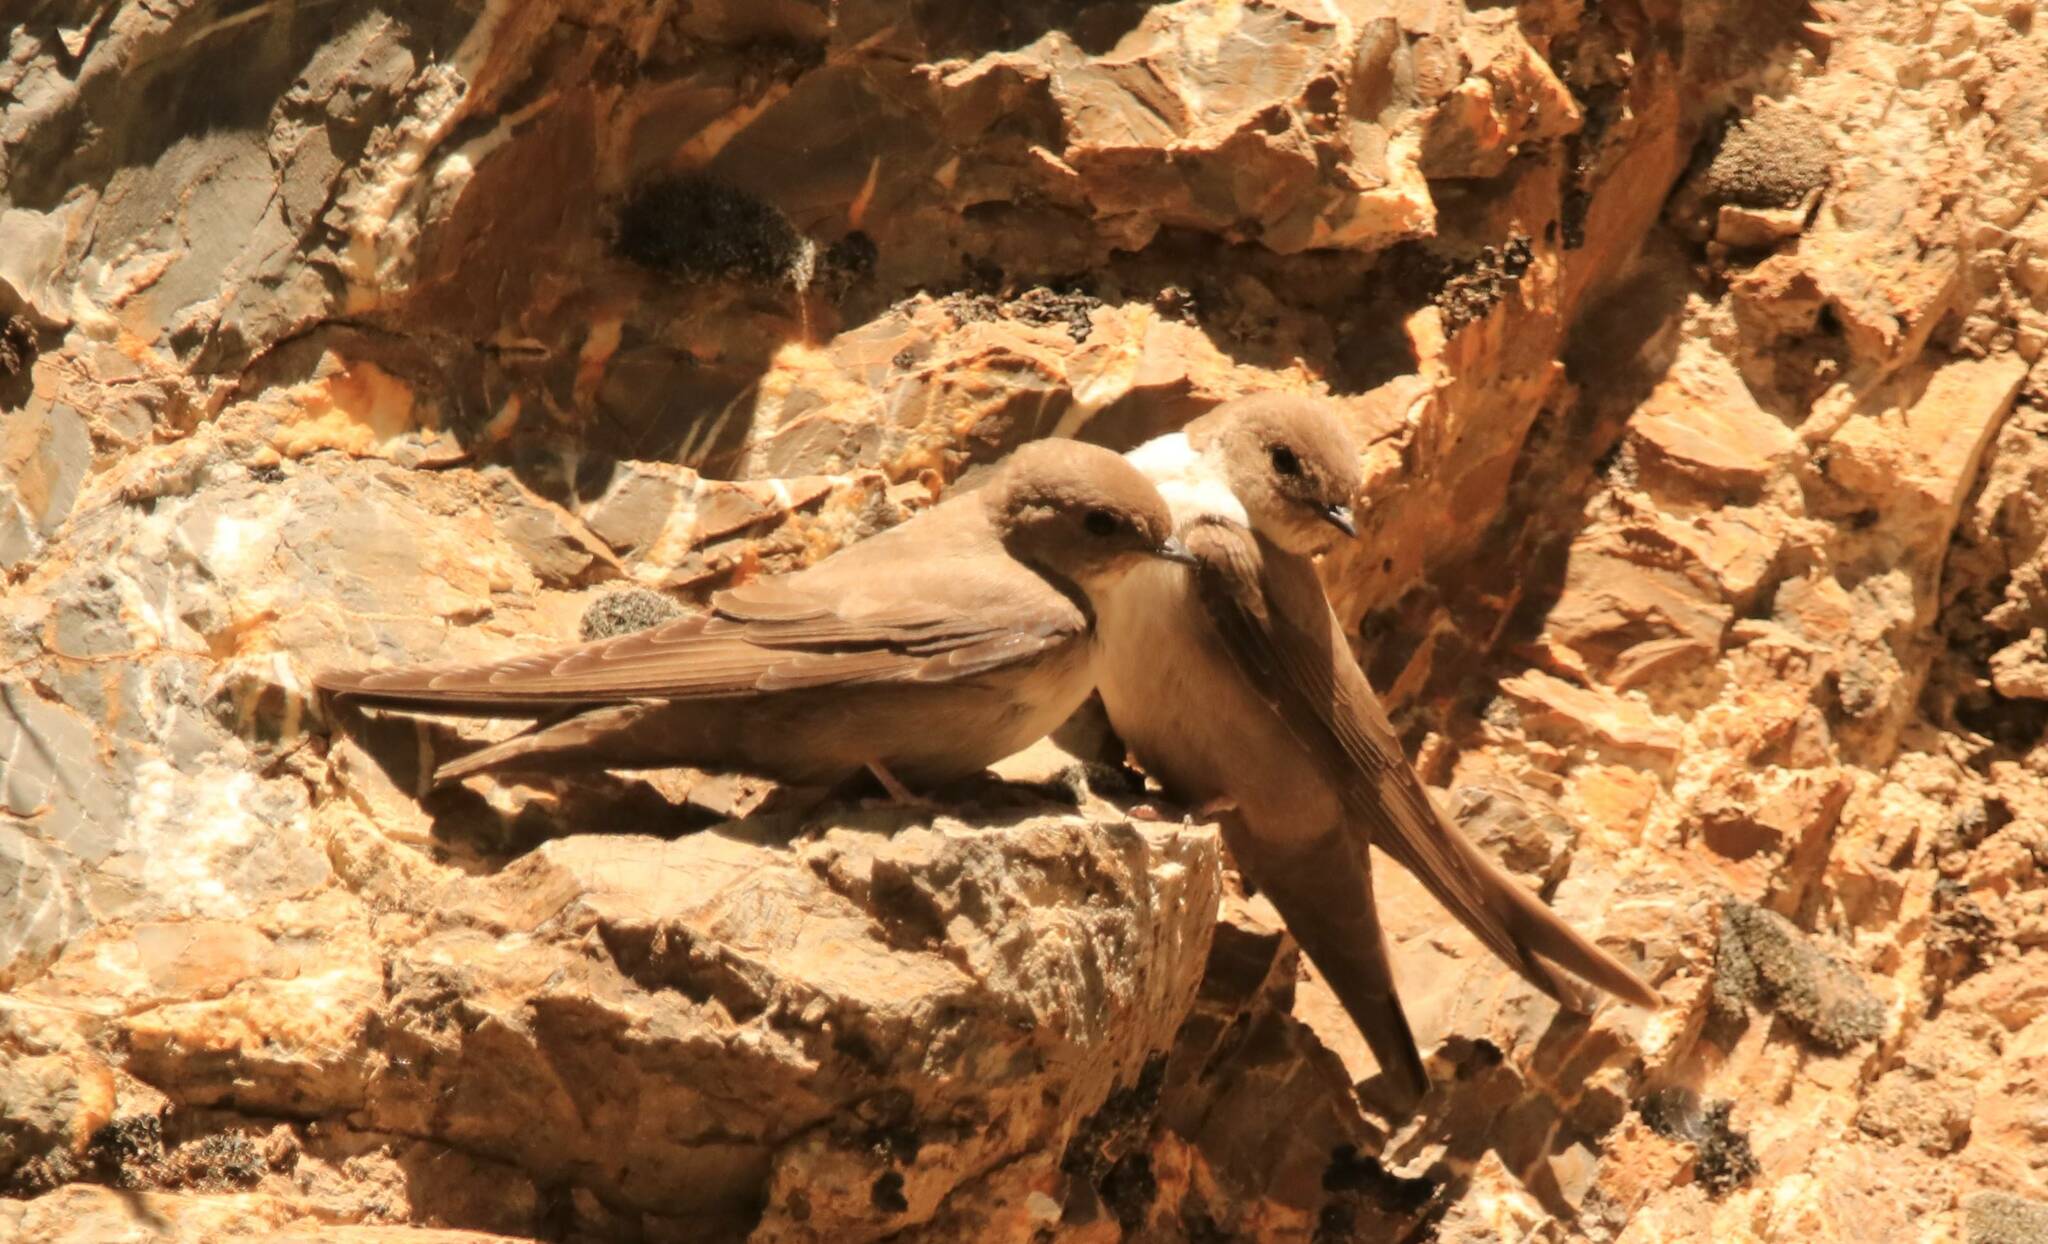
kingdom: Animalia
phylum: Chordata
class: Aves
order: Passeriformes
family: Hirundinidae
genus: Ptyonoprogne
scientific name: Ptyonoprogne rupestris
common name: Eurasian crag martin
